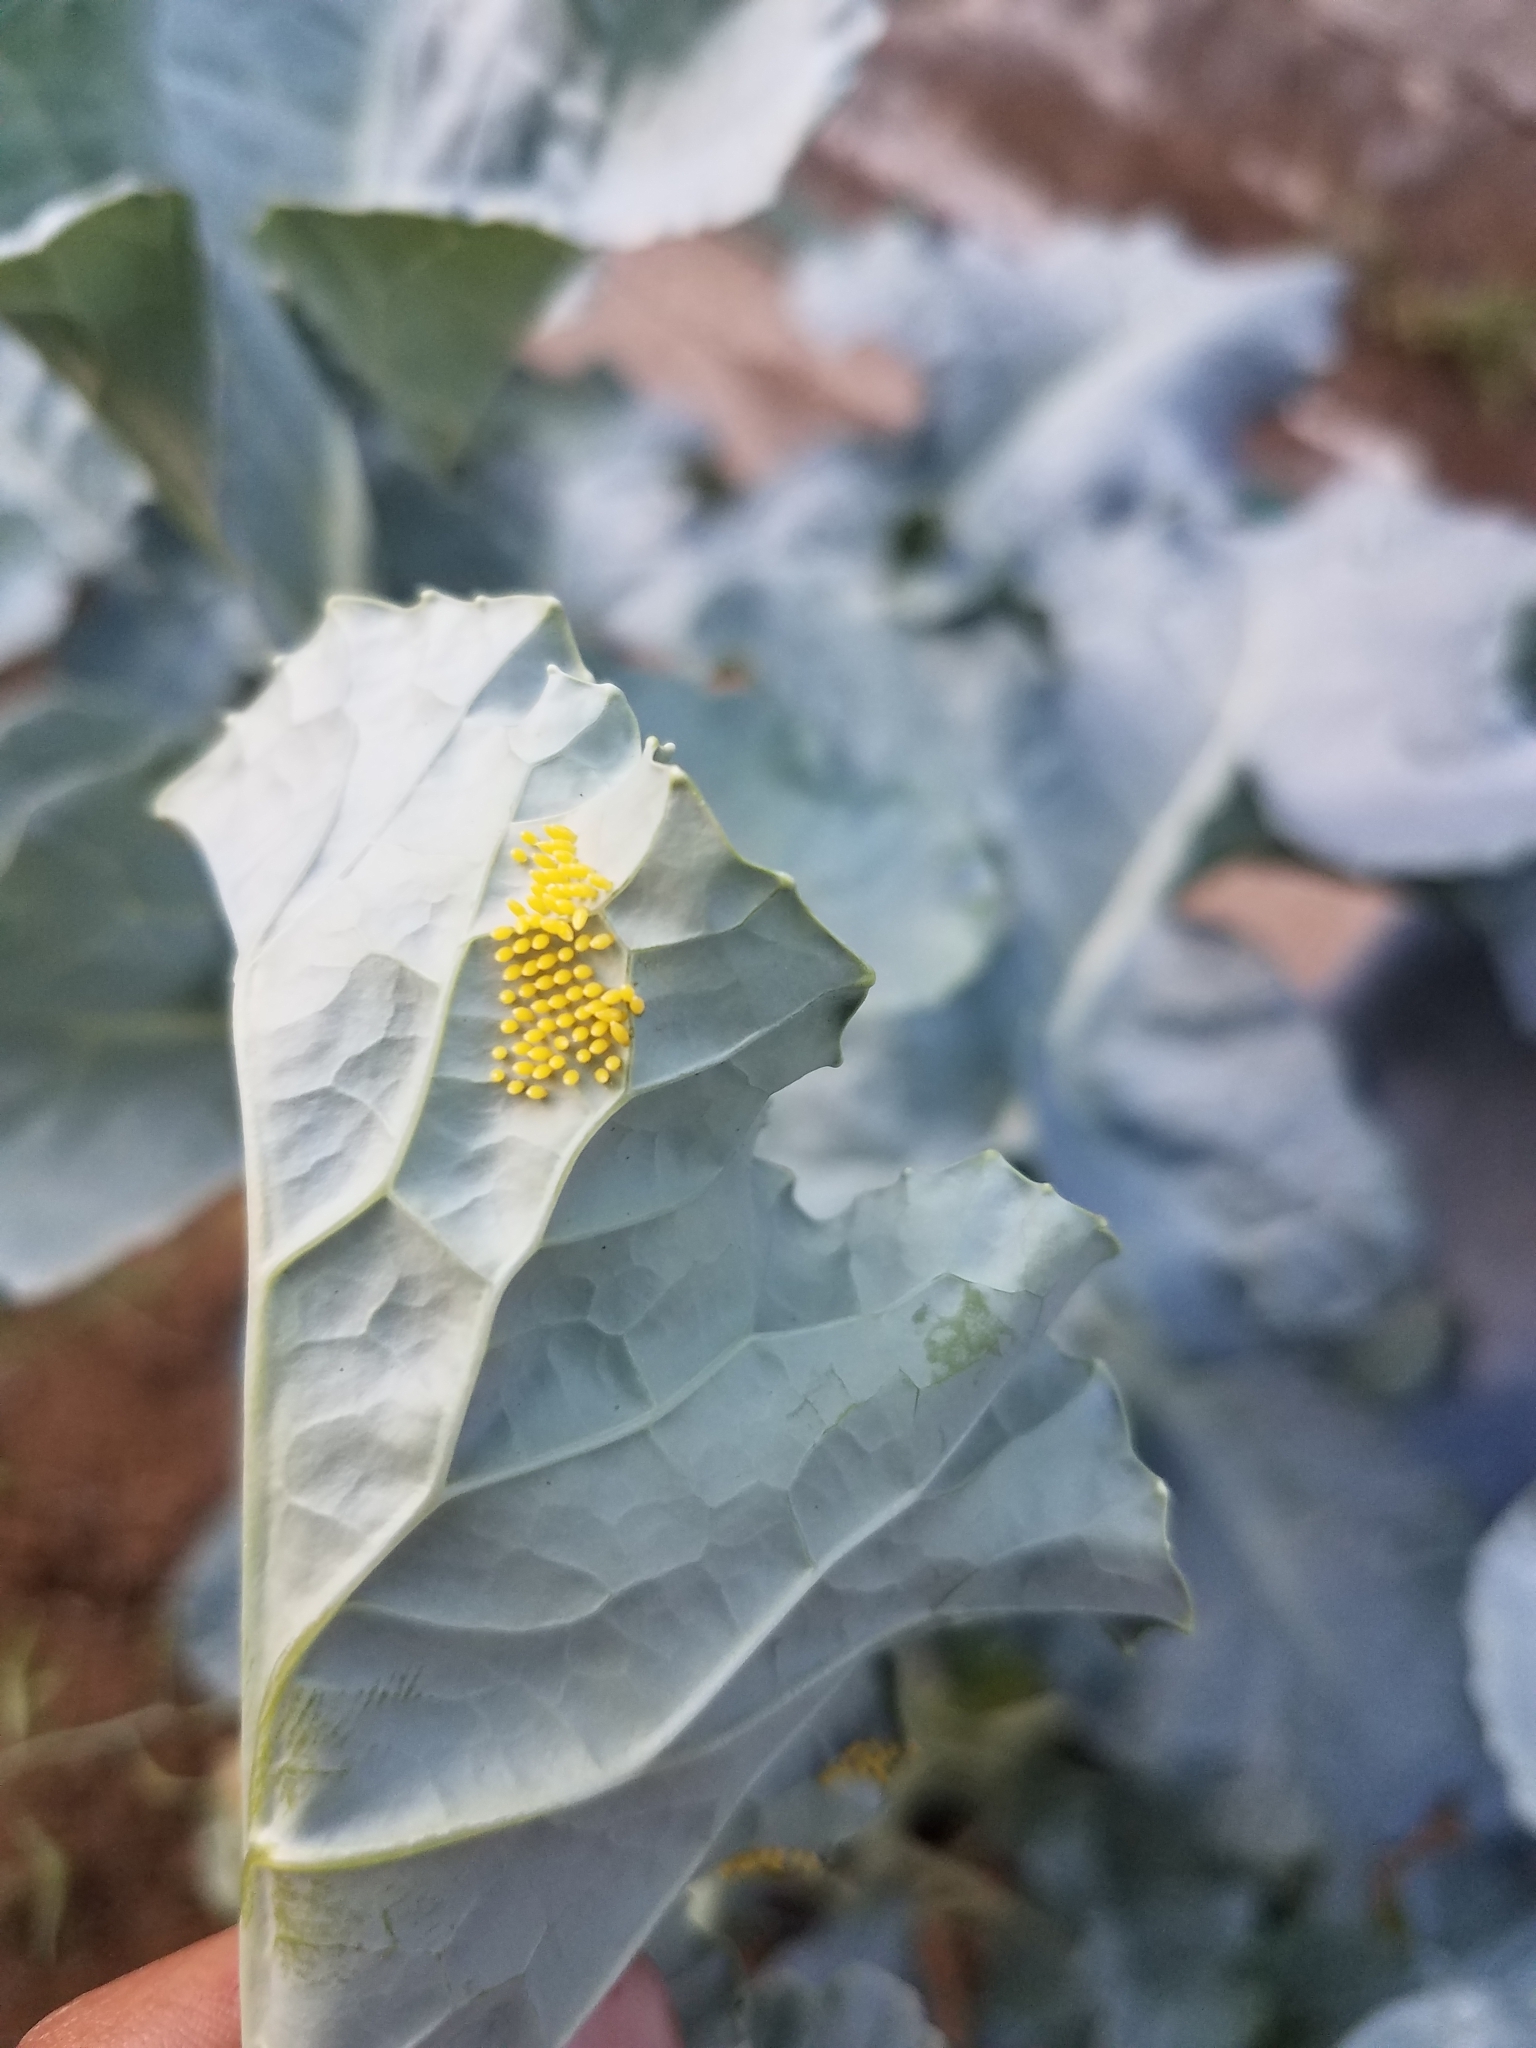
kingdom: Animalia
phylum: Arthropoda
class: Insecta
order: Lepidoptera
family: Pieridae
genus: Ascia
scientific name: Ascia monuste
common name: Great southern white
